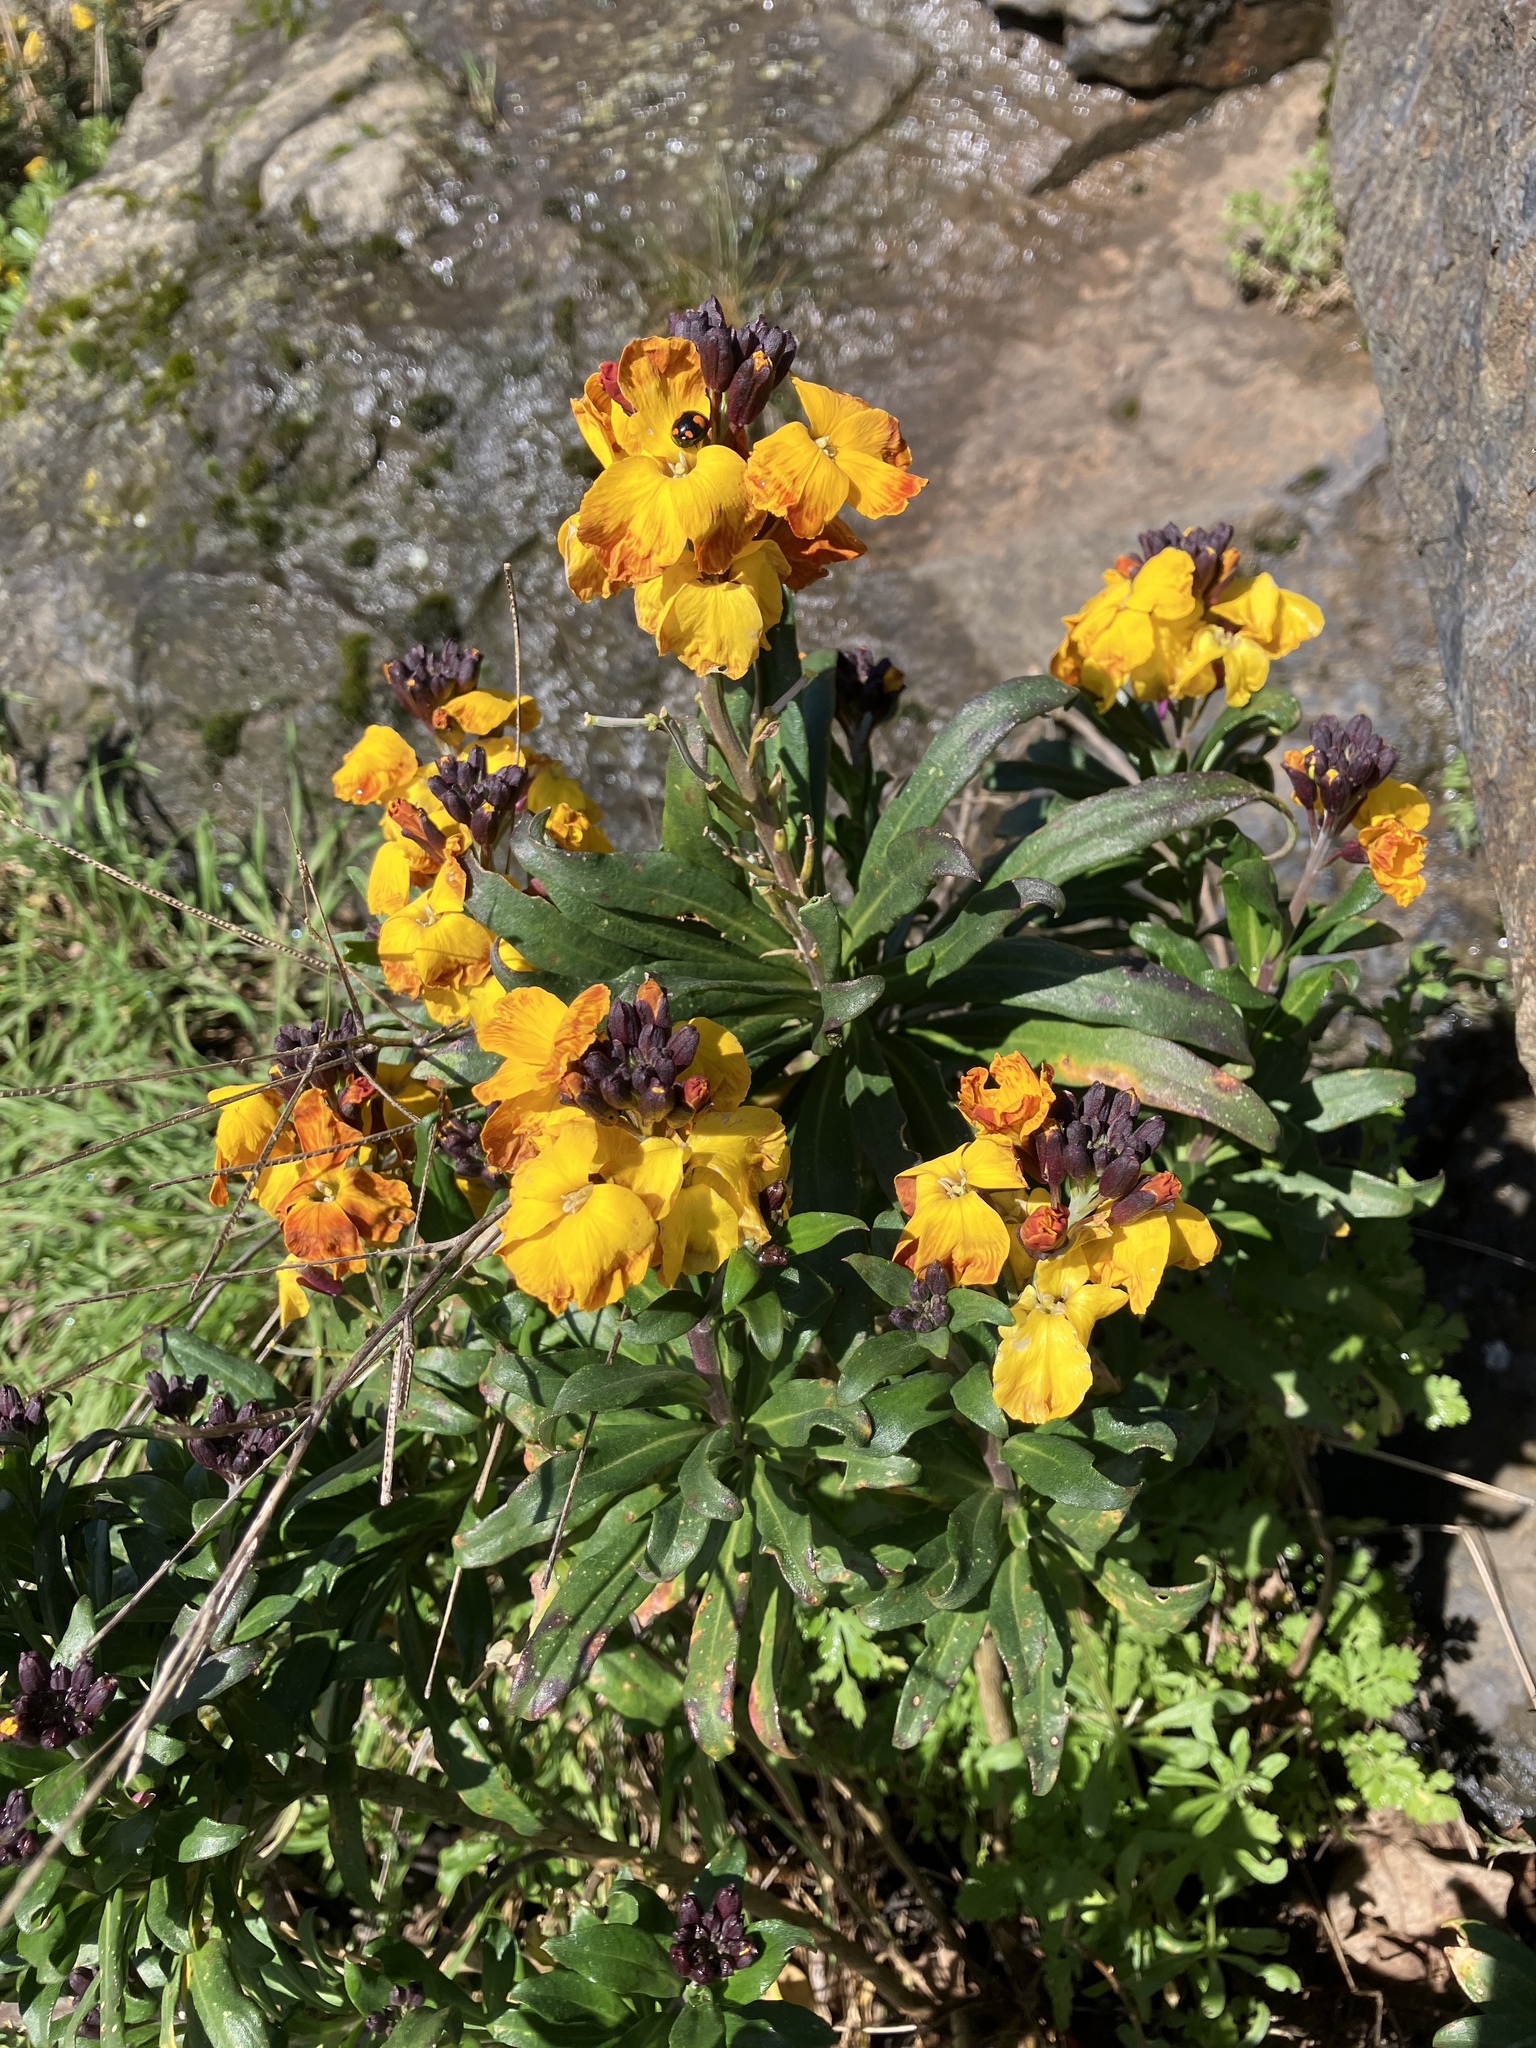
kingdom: Plantae
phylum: Tracheophyta
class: Magnoliopsida
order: Brassicales
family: Brassicaceae
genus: Erysimum
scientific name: Erysimum cheiri
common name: Wallflower
